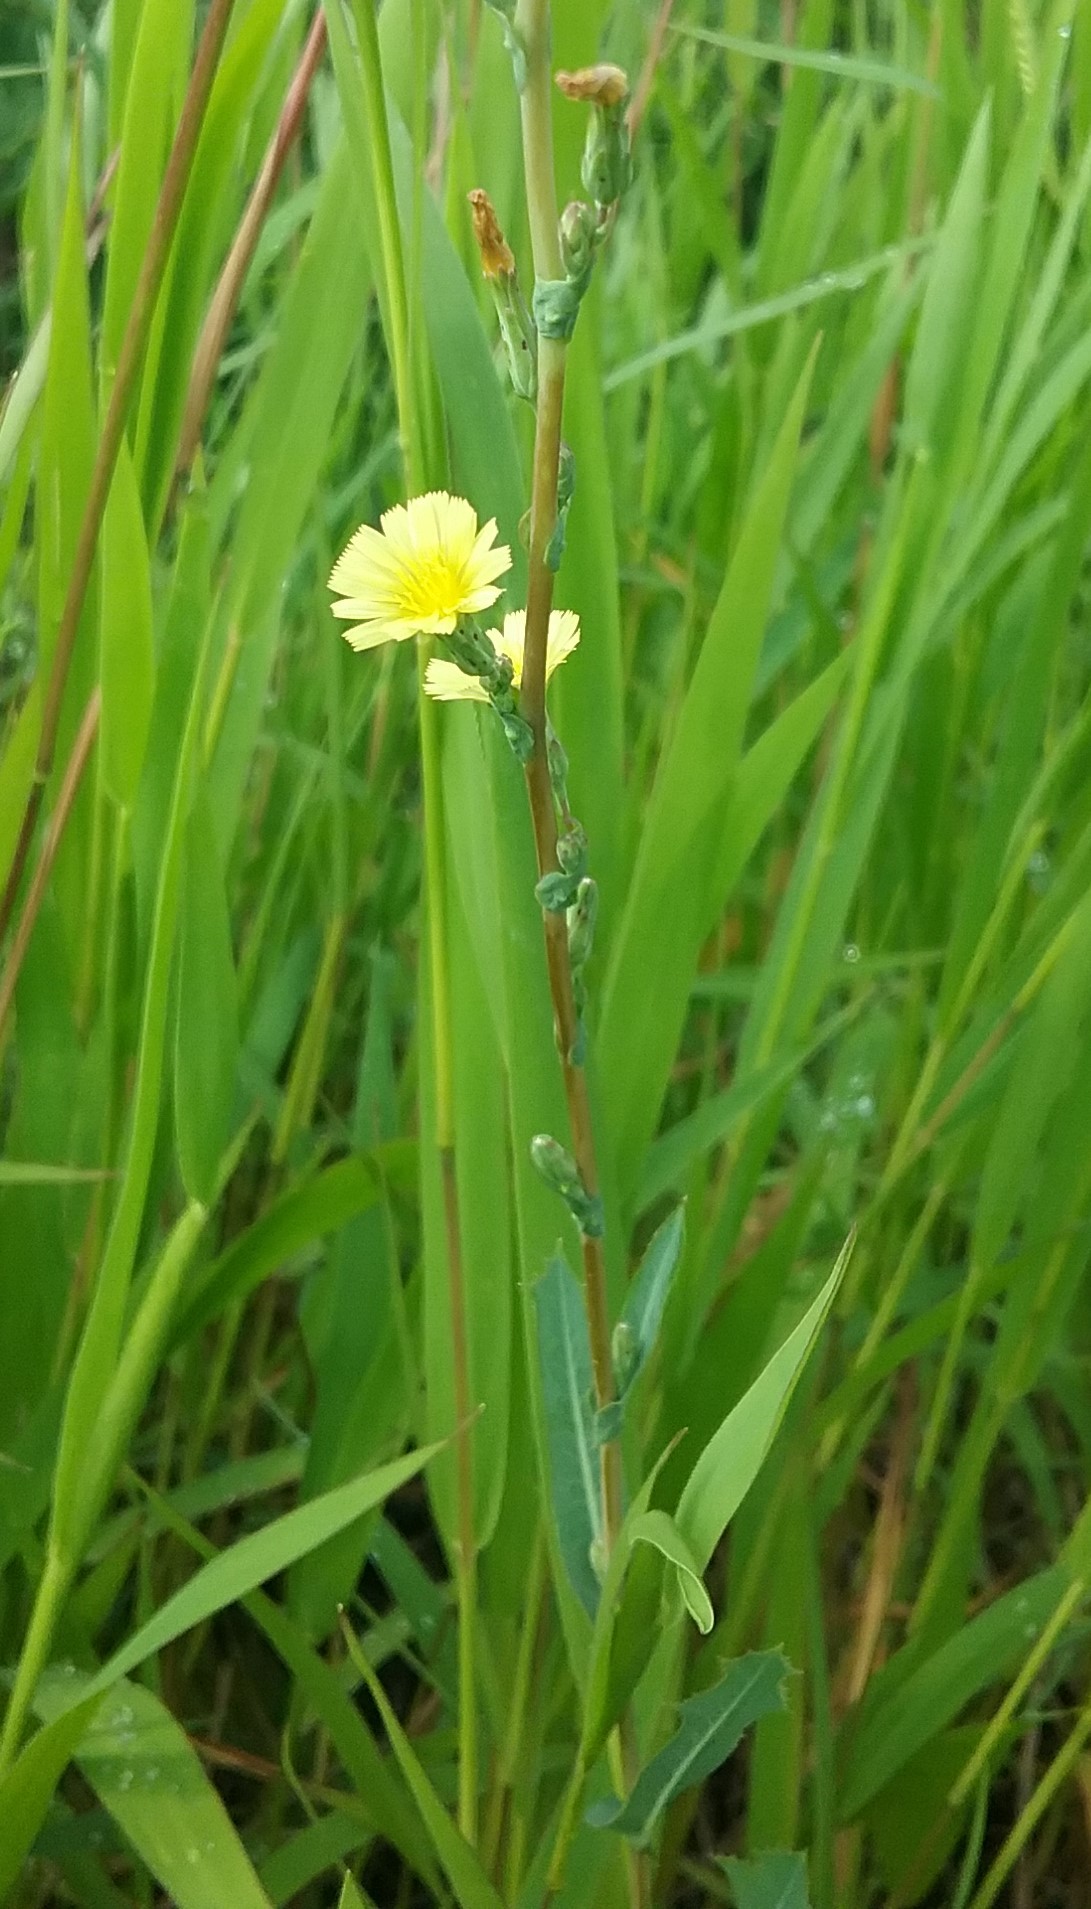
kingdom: Plantae
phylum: Tracheophyta
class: Magnoliopsida
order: Asterales
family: Asteraceae
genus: Lactuca
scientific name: Lactuca serriola
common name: Prickly lettuce
